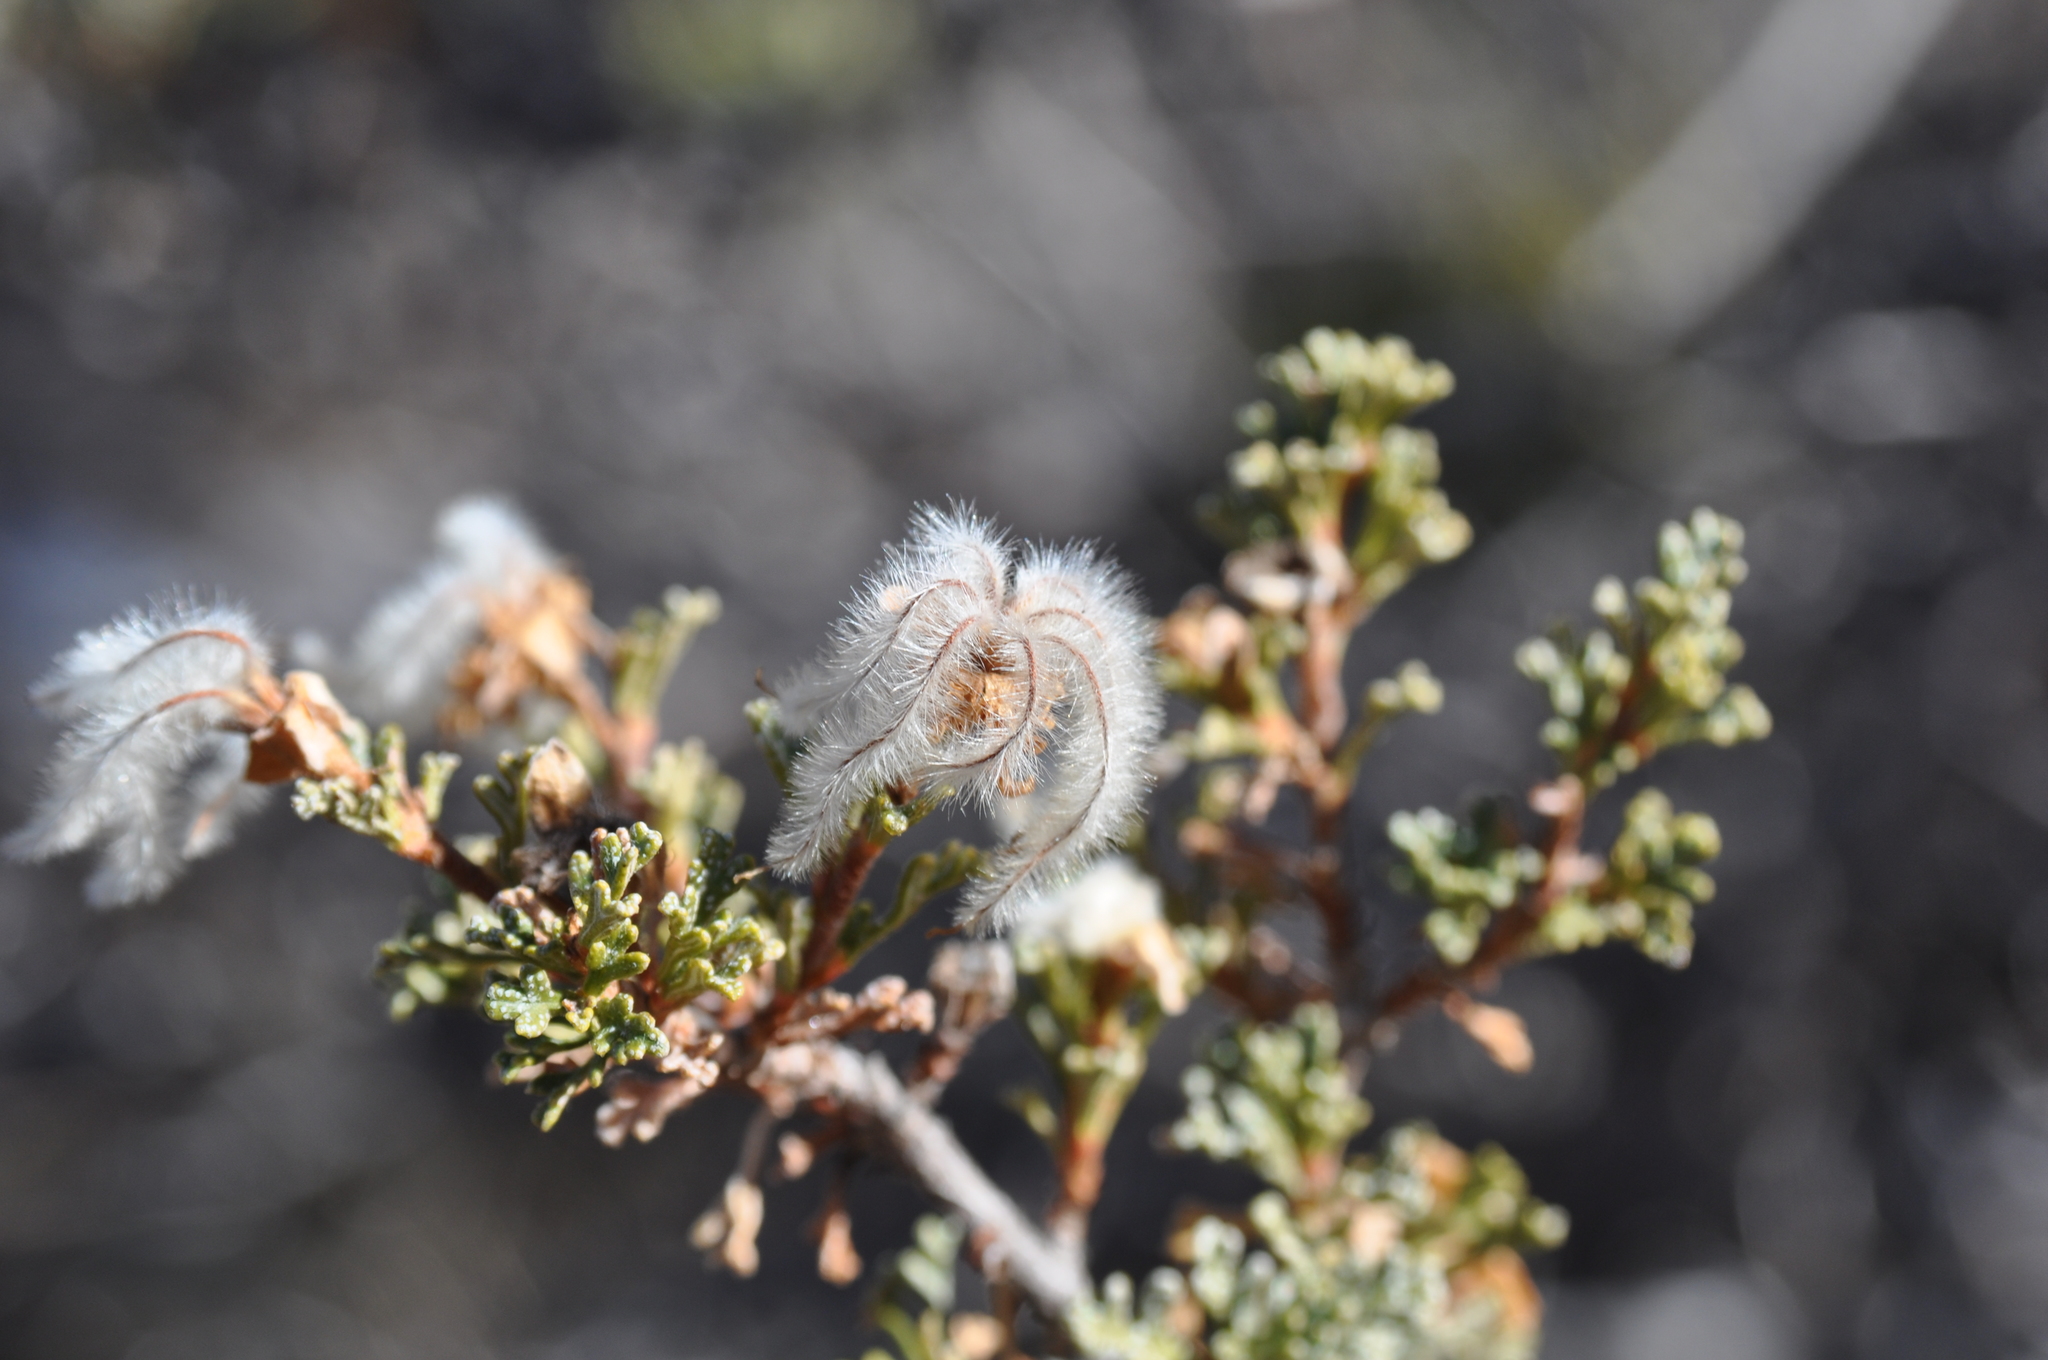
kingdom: Plantae
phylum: Tracheophyta
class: Magnoliopsida
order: Rosales
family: Rosaceae
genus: Purshia
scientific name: Purshia stansburiana
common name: Stansbury's cliffrose
